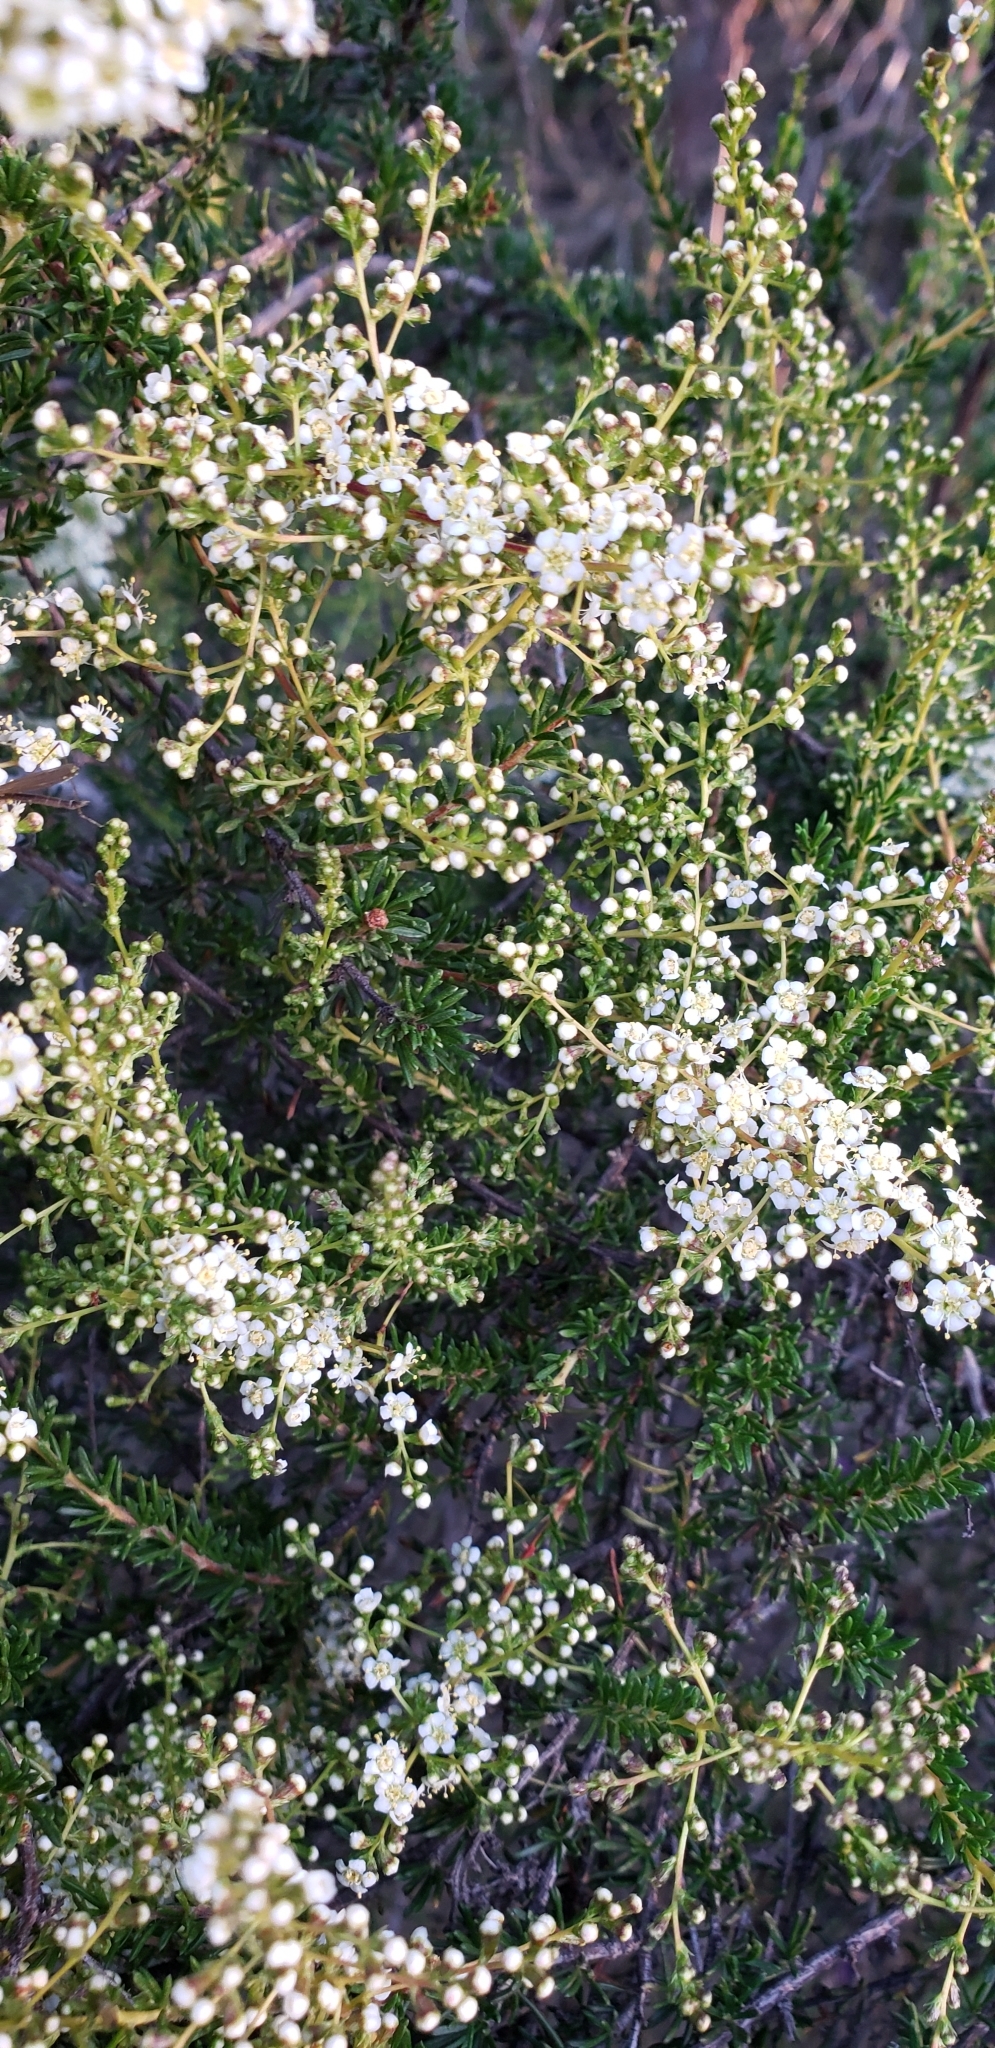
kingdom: Plantae
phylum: Tracheophyta
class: Magnoliopsida
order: Rosales
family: Rosaceae
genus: Adenostoma
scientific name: Adenostoma fasciculatum
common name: Chamise
